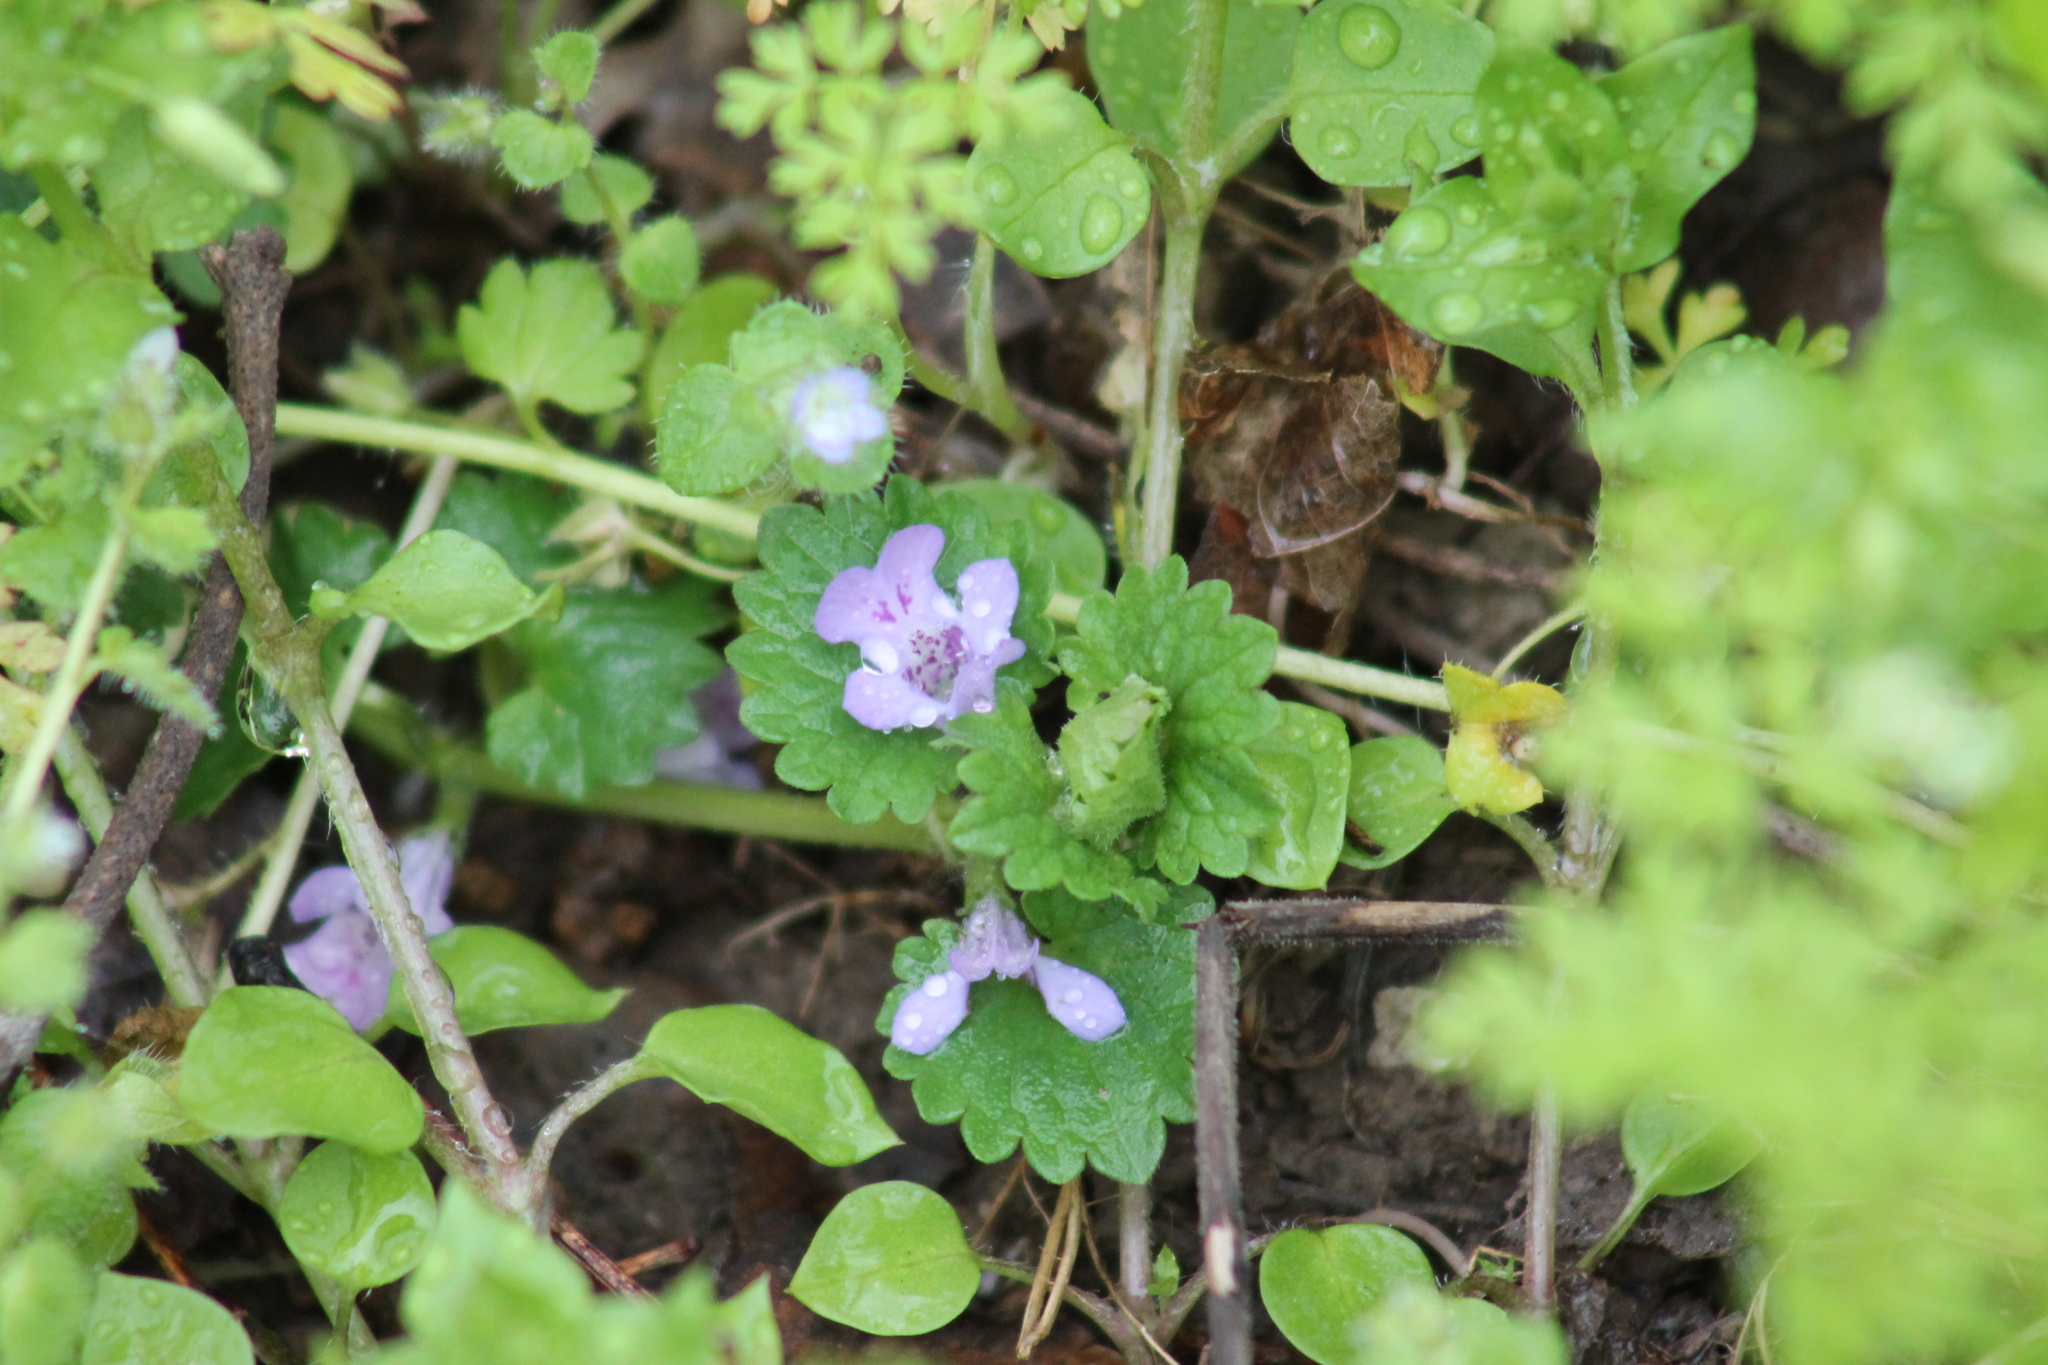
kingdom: Plantae
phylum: Tracheophyta
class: Magnoliopsida
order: Lamiales
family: Lamiaceae
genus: Glechoma
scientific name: Glechoma hederacea
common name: Ground ivy
